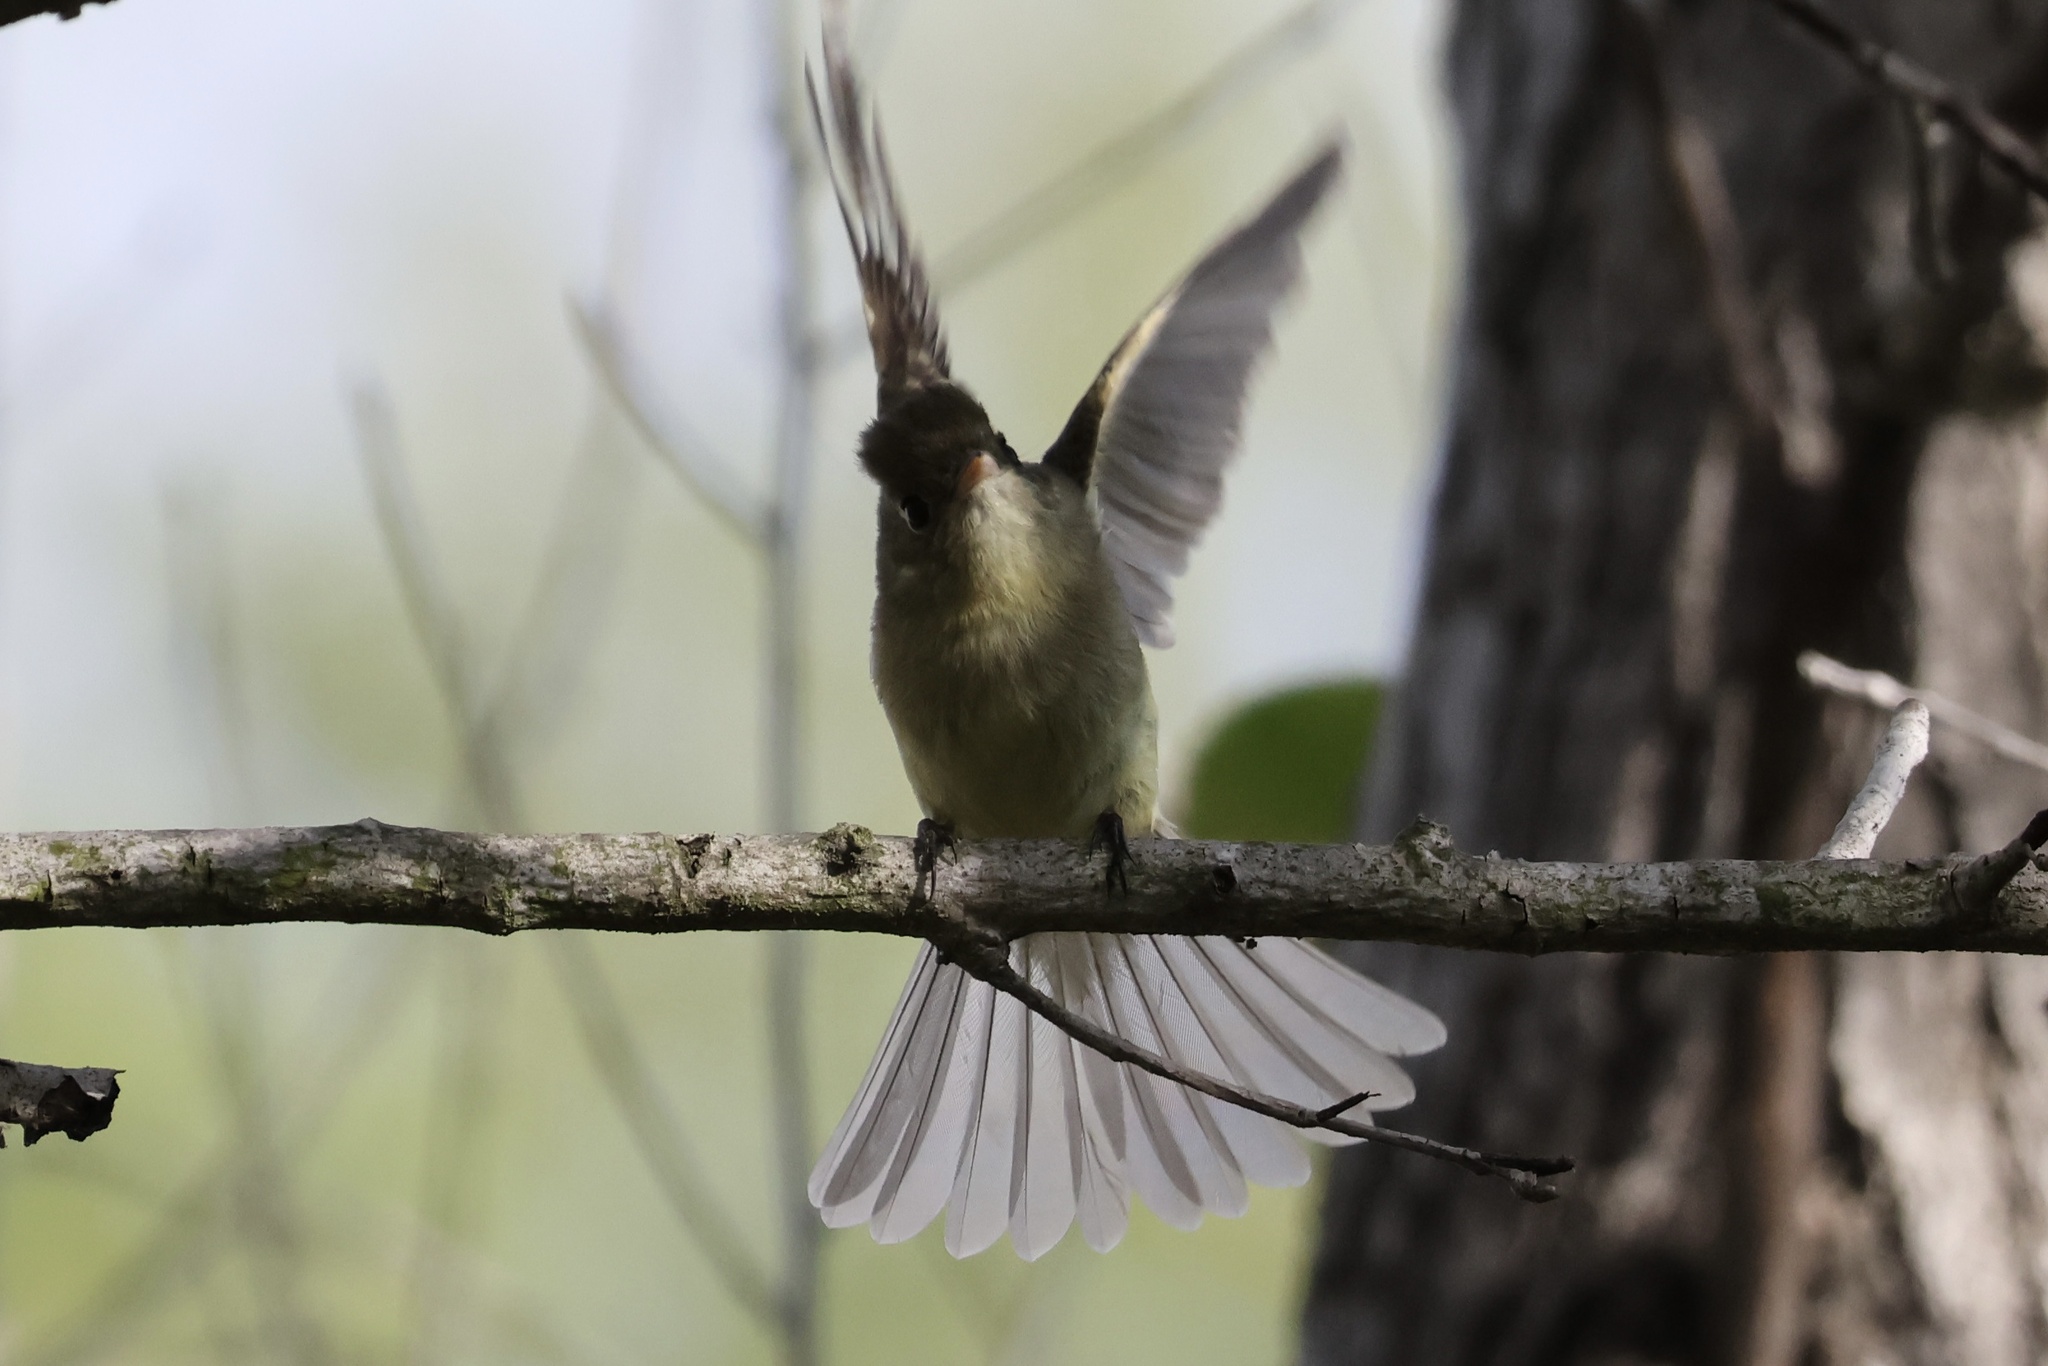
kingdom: Animalia
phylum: Chordata
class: Aves
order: Passeriformes
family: Tyrannidae
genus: Empidonax
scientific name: Empidonax difficilis
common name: Pacific-slope flycatcher
